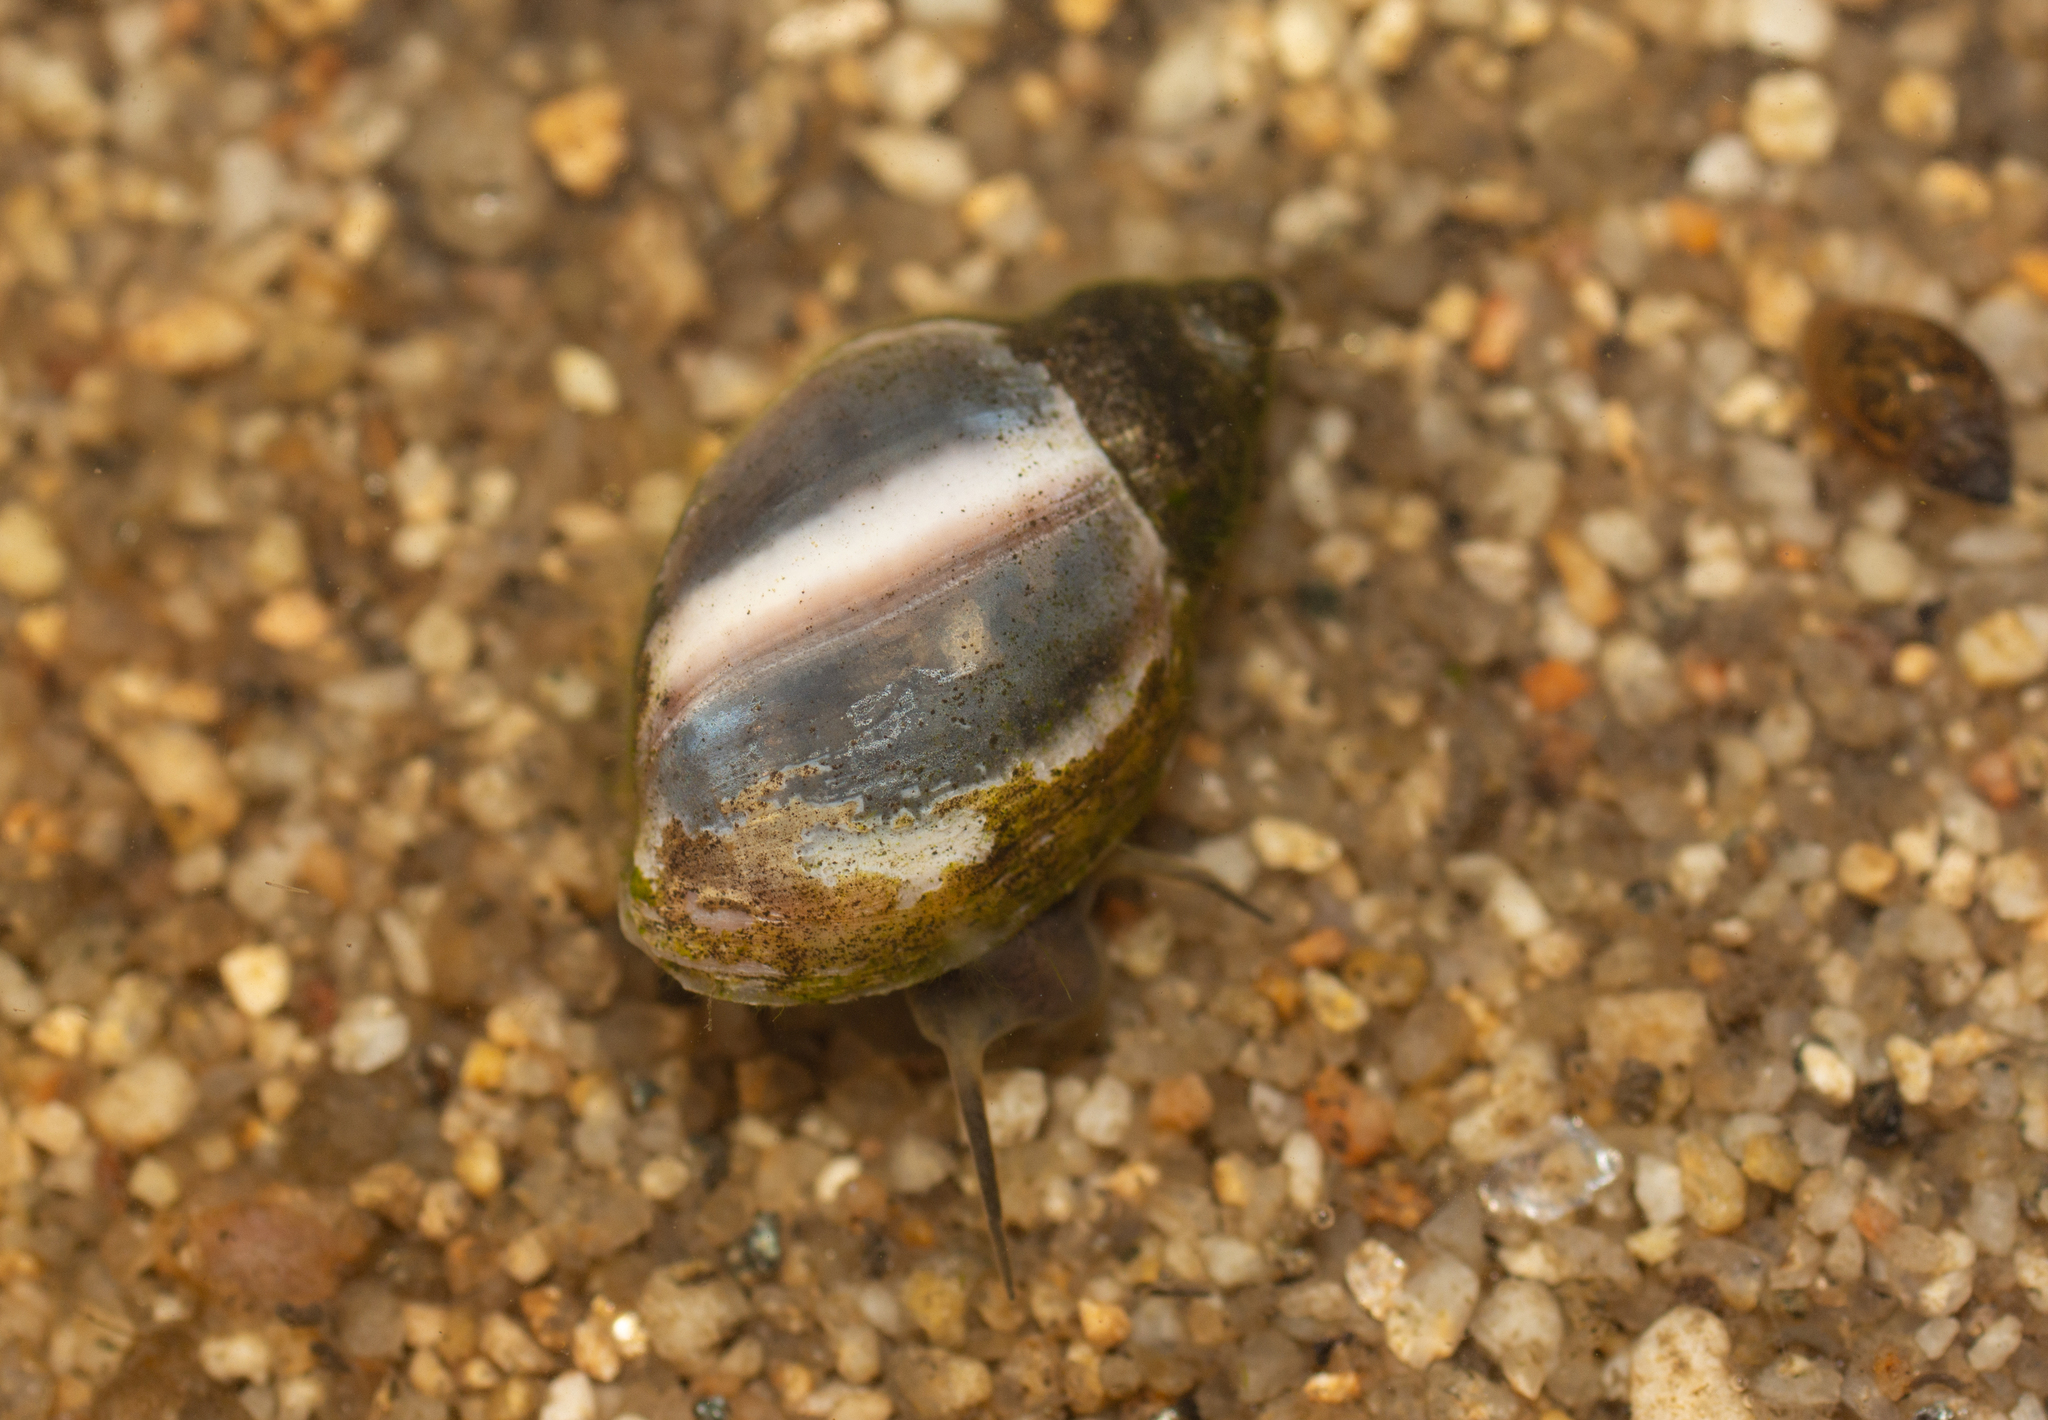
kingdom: Animalia
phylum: Mollusca
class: Gastropoda
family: Physidae
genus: Physella
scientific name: Physella acuta
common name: European physa
